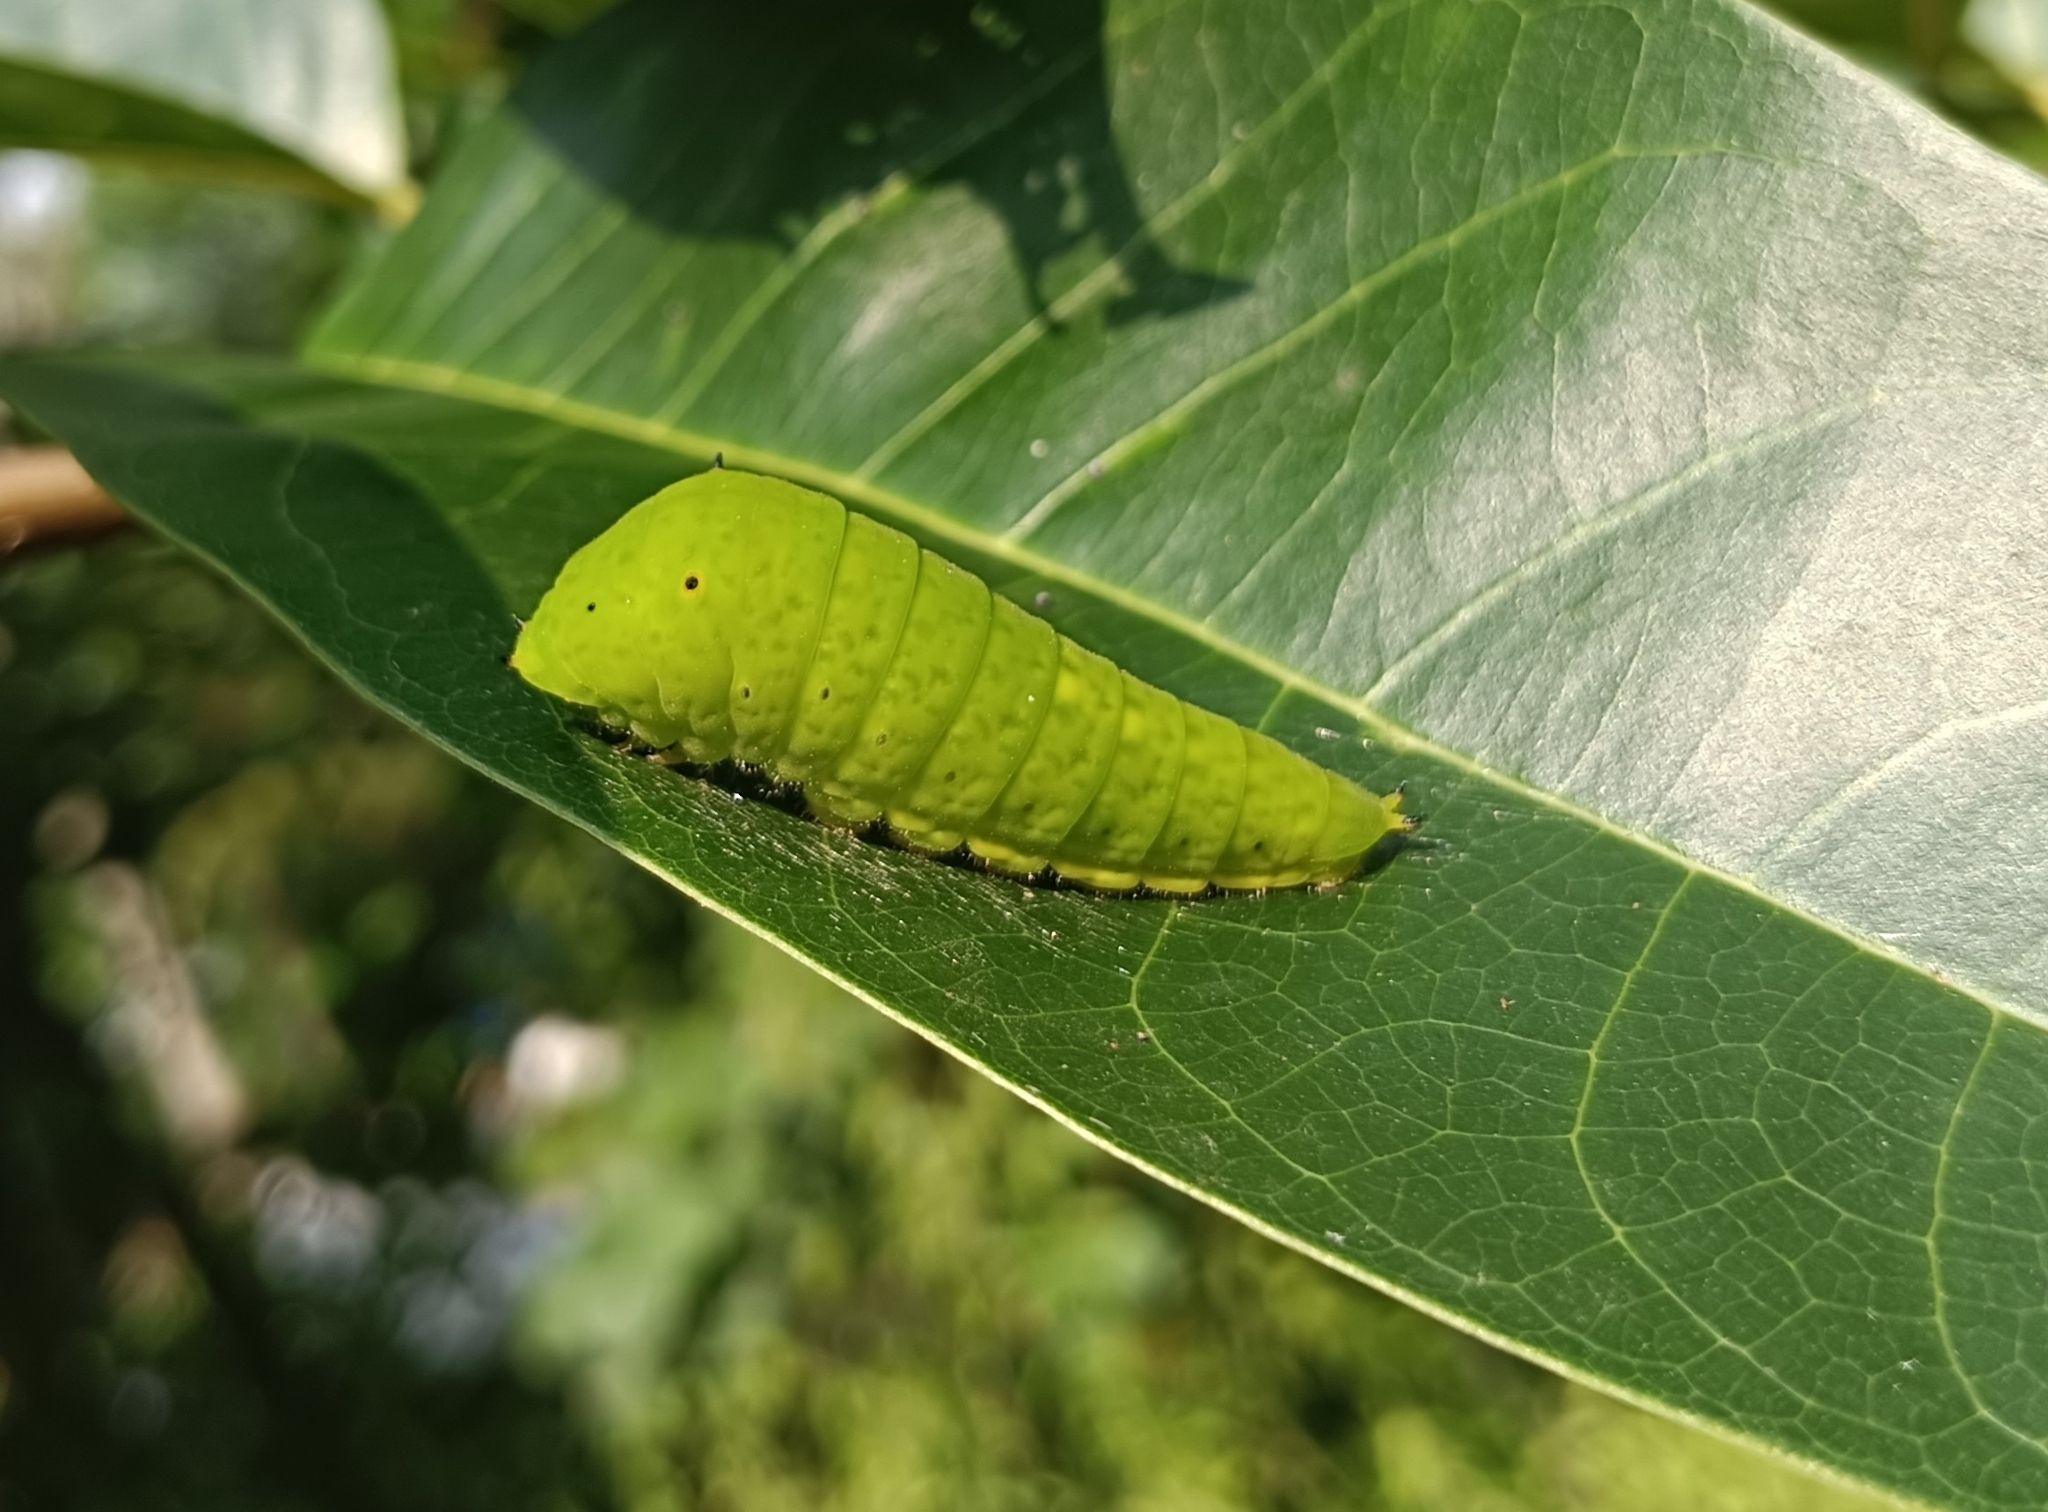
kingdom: Animalia
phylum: Arthropoda
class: Insecta
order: Lepidoptera
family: Papilionidae
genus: Graphium
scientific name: Graphium
